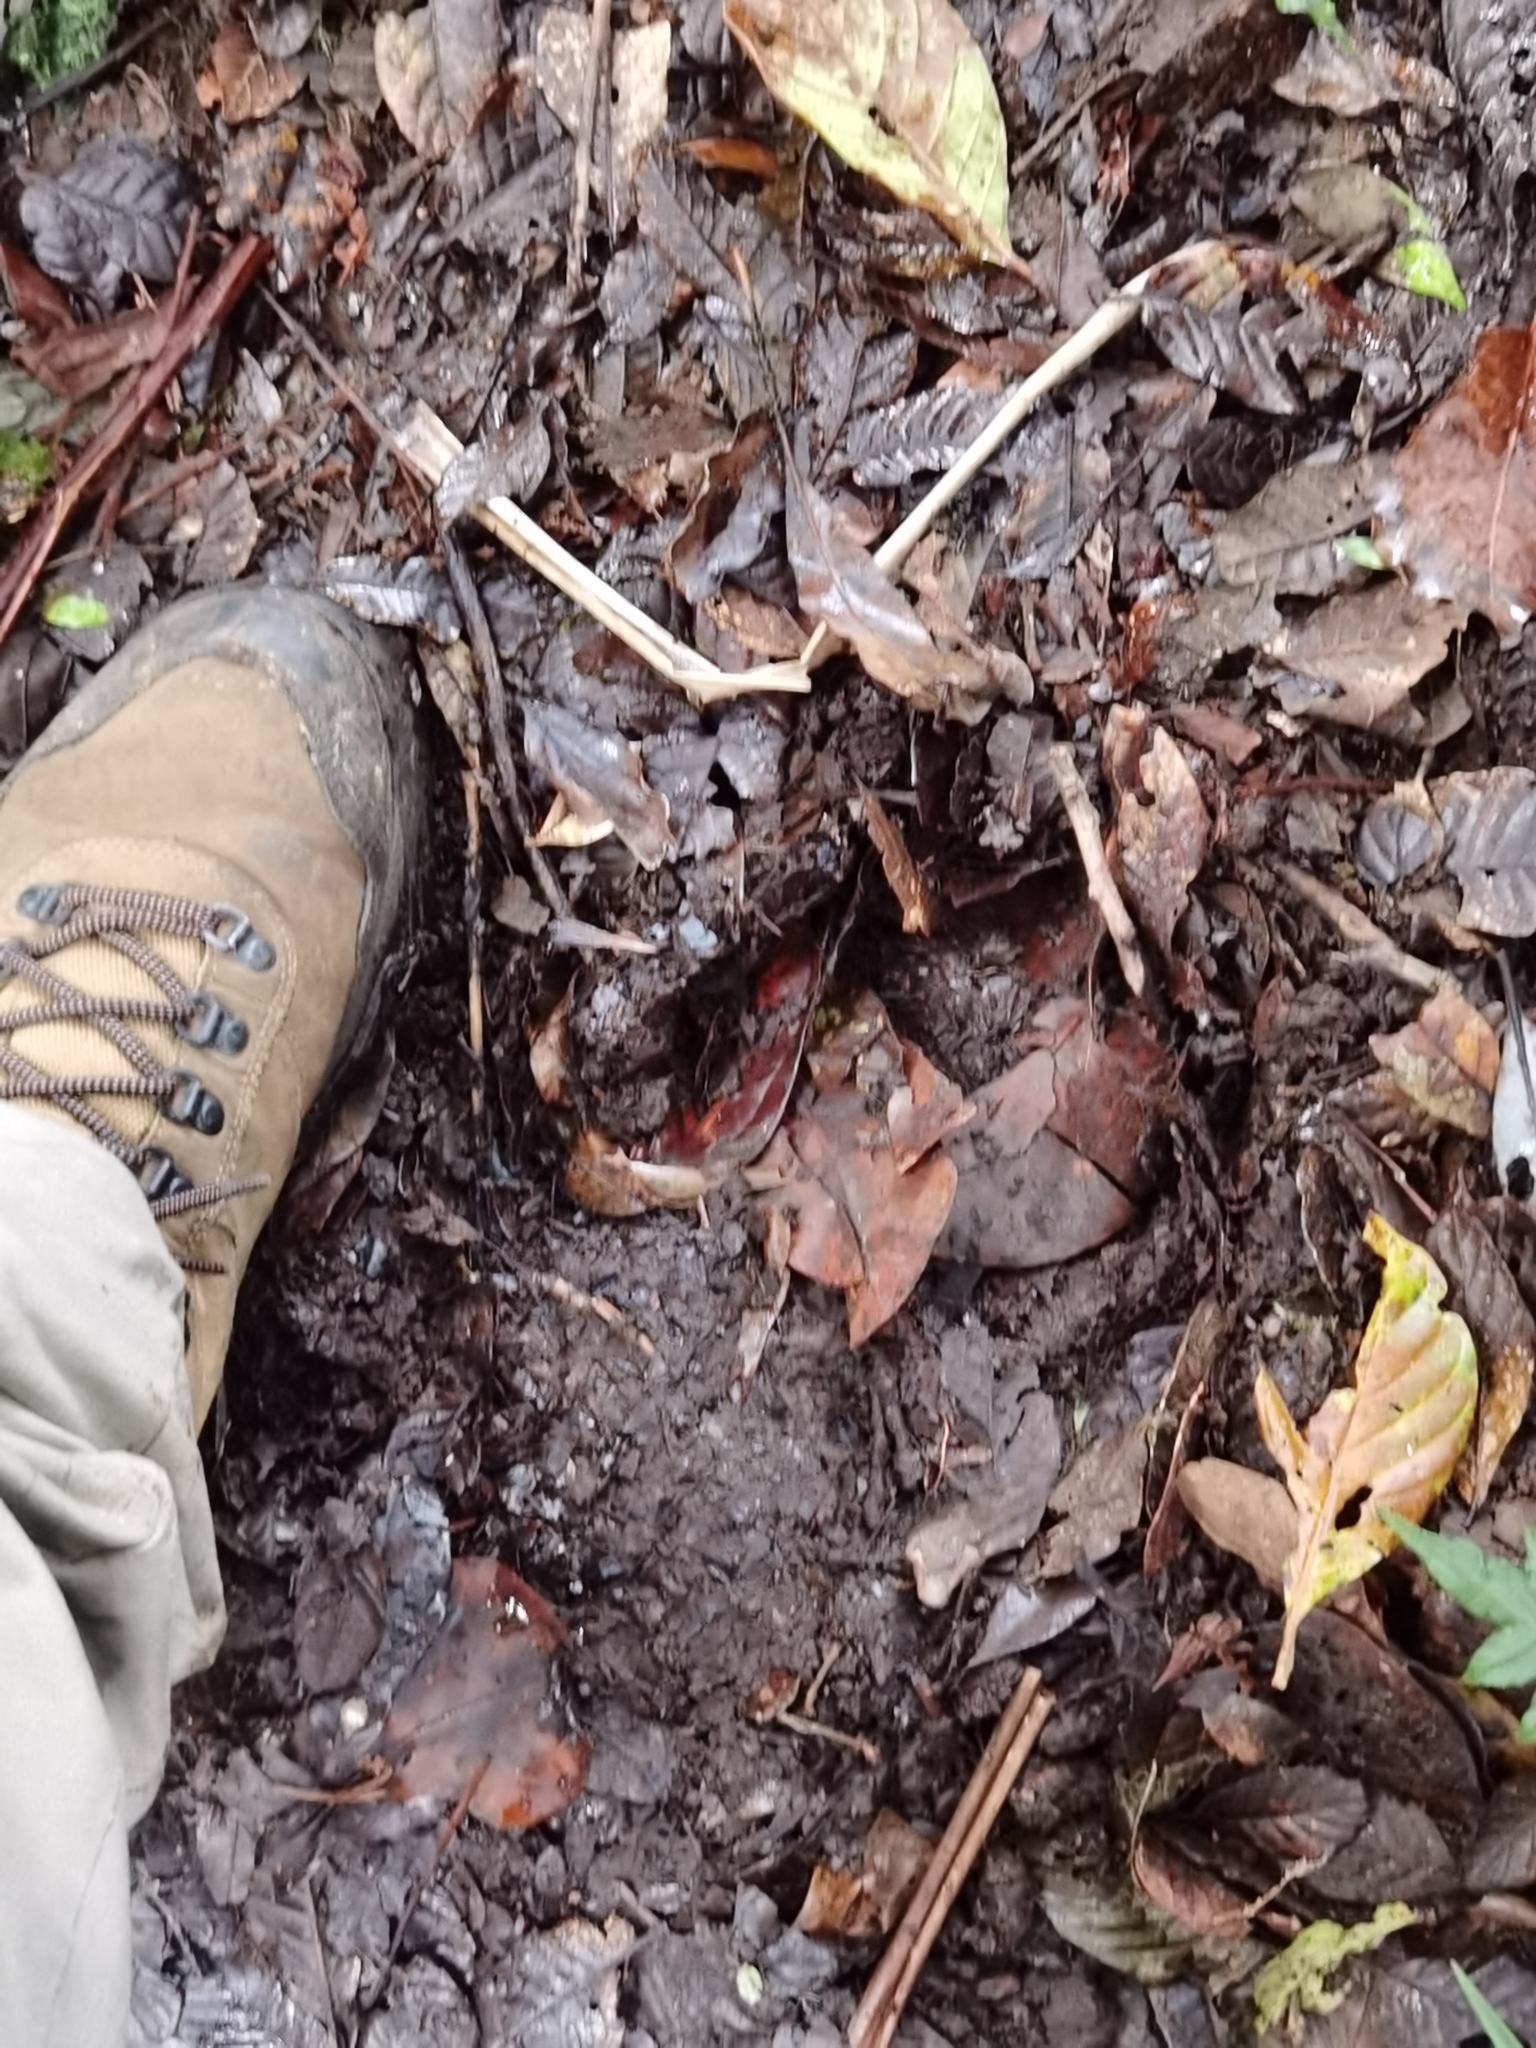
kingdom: Animalia
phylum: Chordata
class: Mammalia
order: Perissodactyla
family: Tapiridae
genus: Tapirella
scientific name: Tapirella bairdii
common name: Baird's tapir
